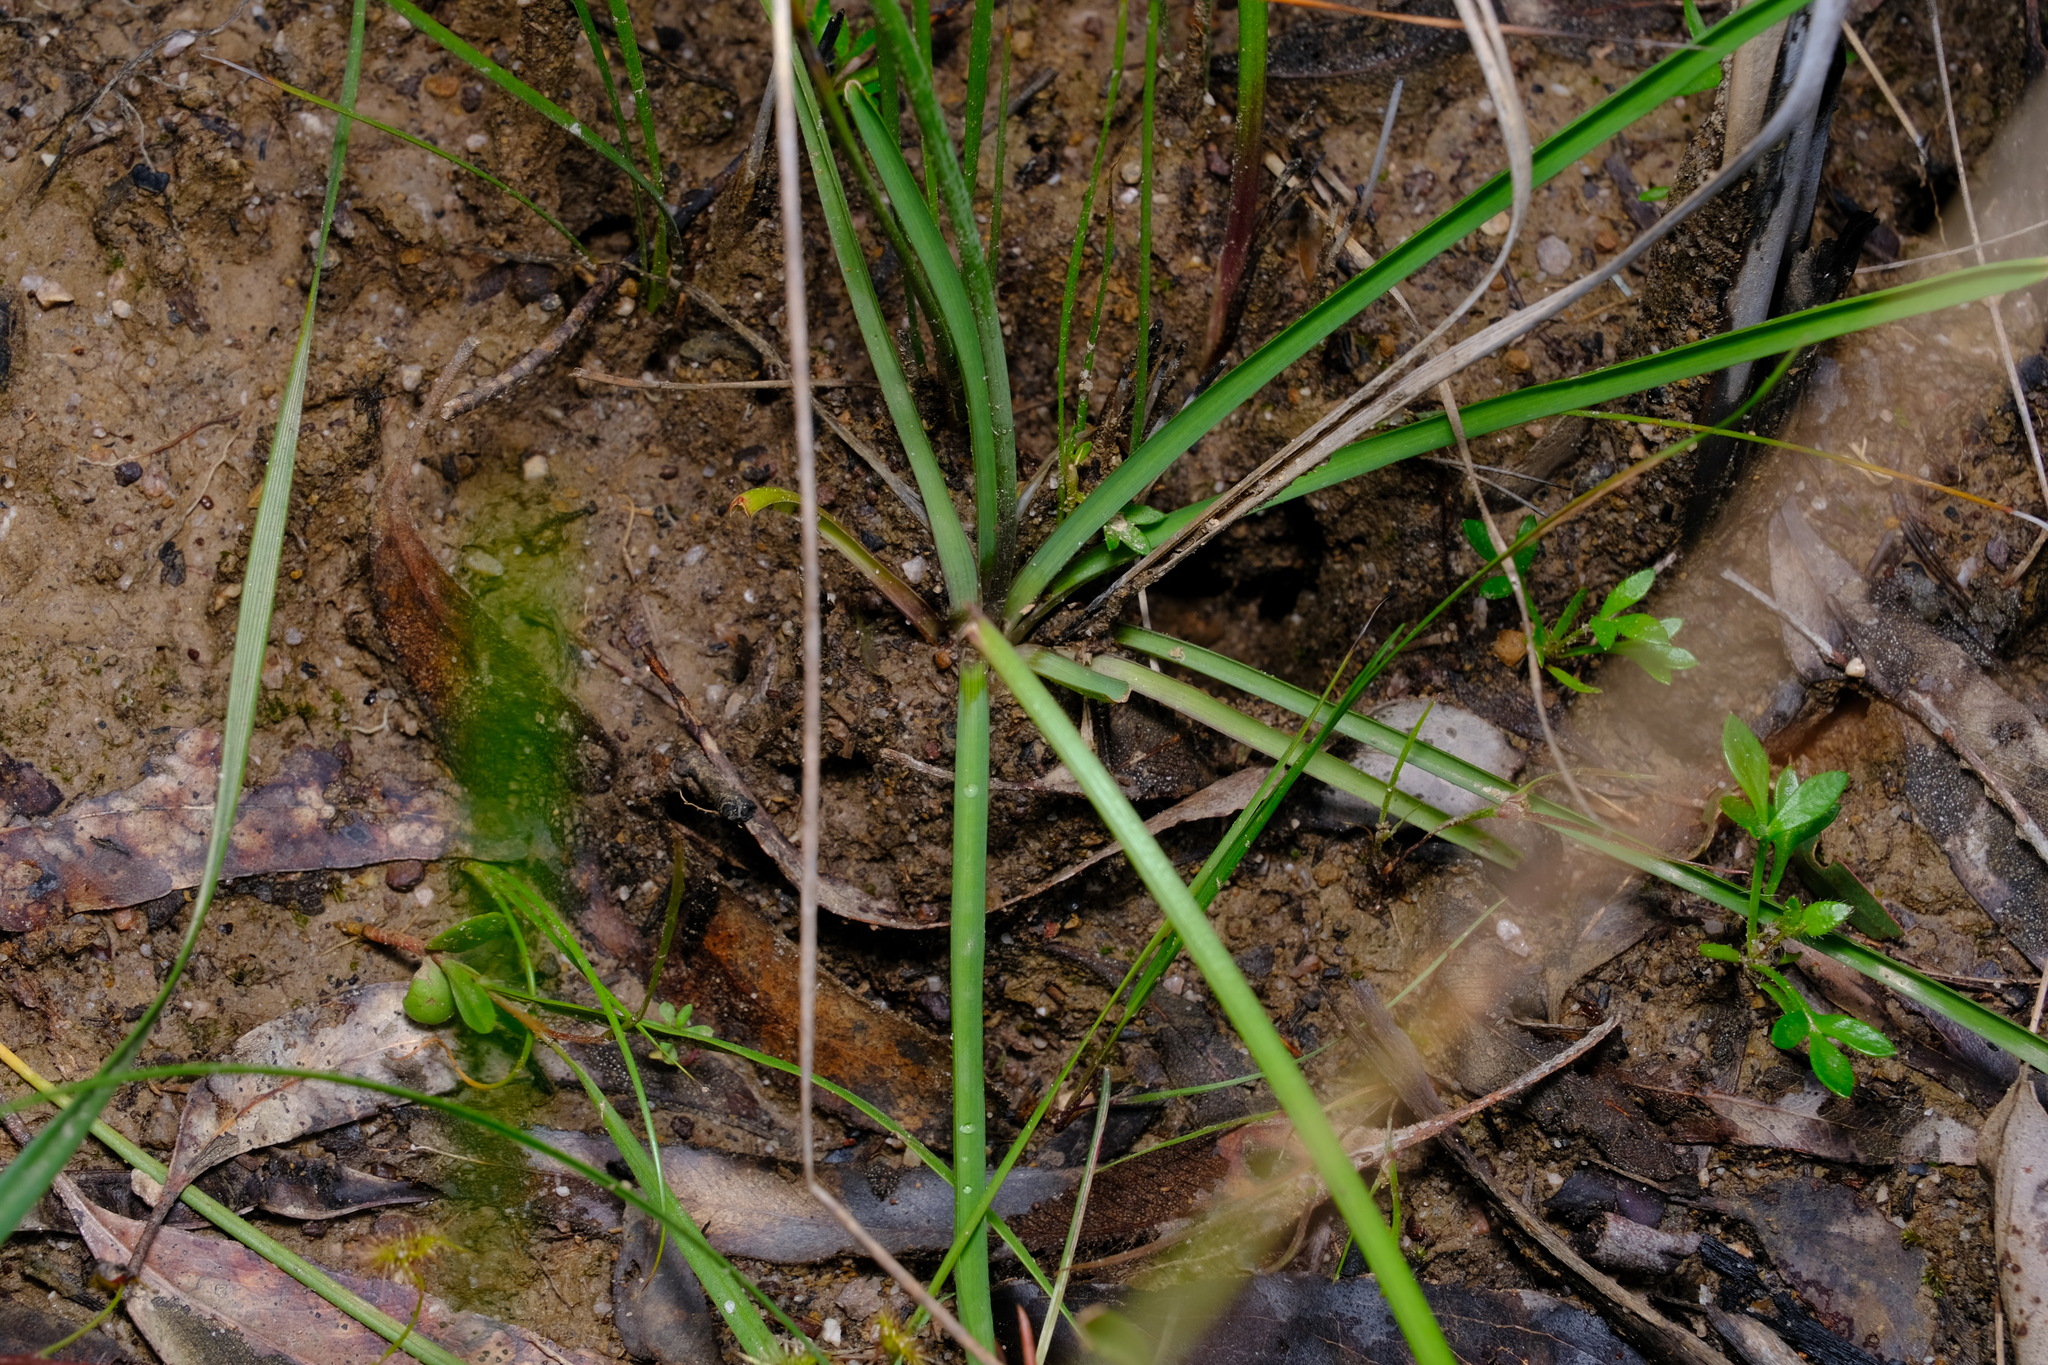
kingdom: Plantae
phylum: Tracheophyta
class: Liliopsida
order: Asparagales
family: Asparagaceae
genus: Arthropodium
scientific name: Arthropodium strictum
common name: Chocolate-lily
